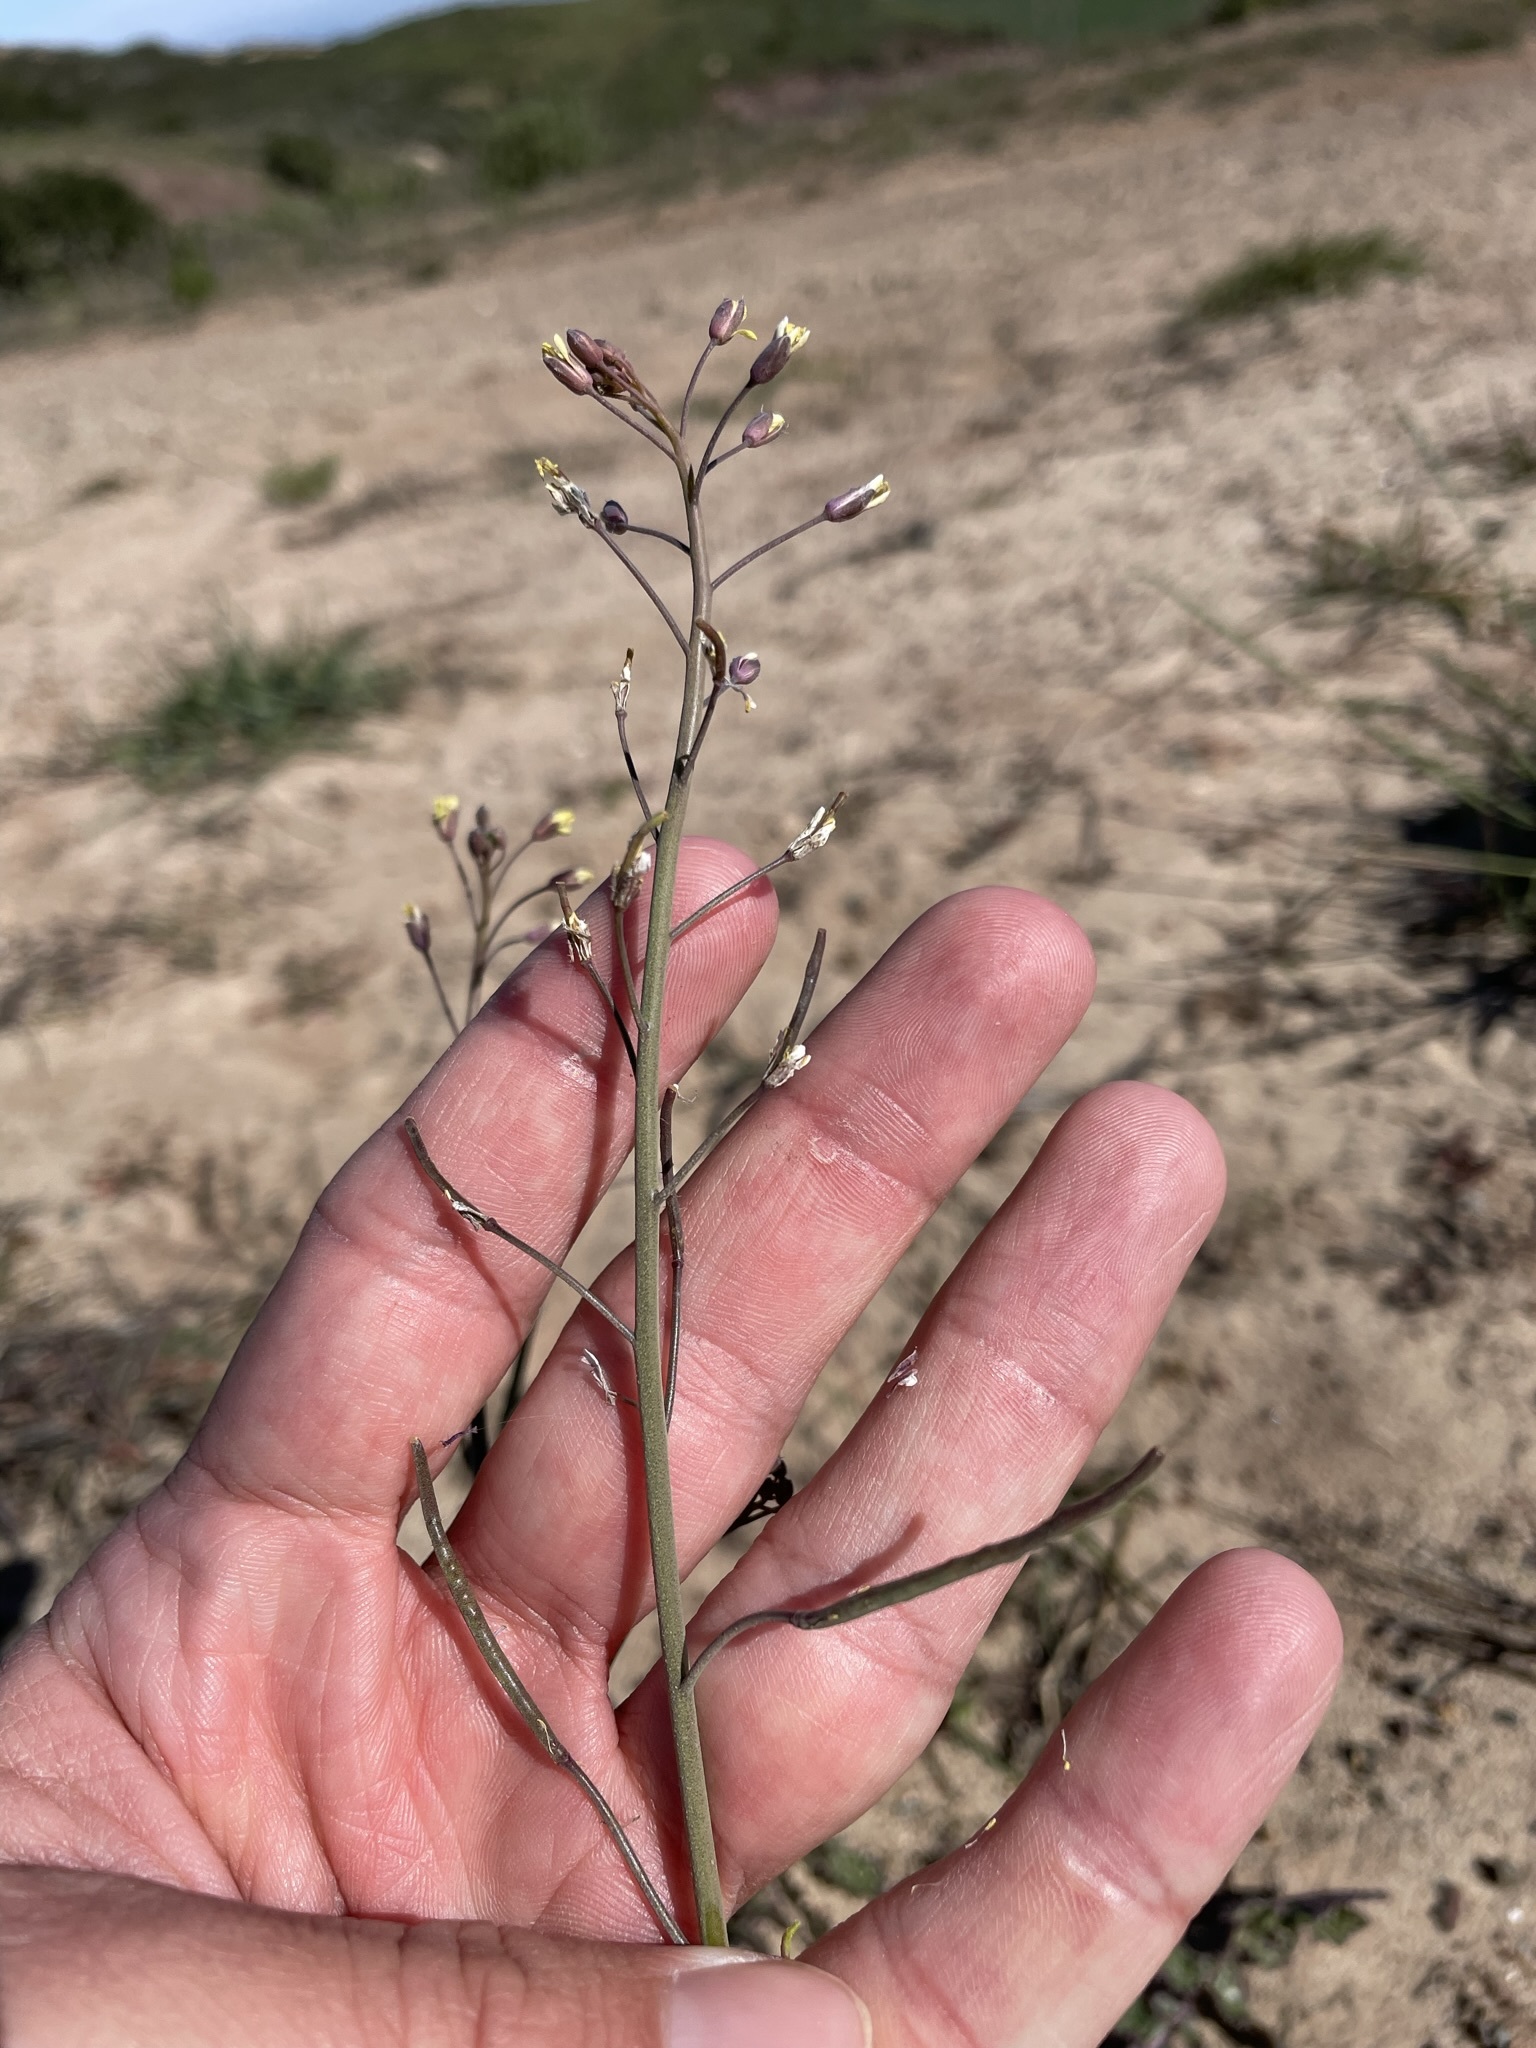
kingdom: Plantae
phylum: Tracheophyta
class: Magnoliopsida
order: Brassicales
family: Brassicaceae
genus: Brassica
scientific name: Brassica tournefortii
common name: Pale cabbage
